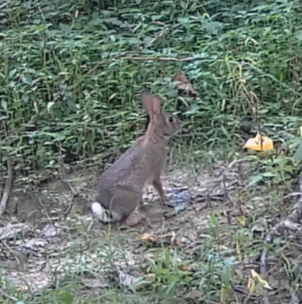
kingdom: Animalia
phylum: Chordata
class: Mammalia
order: Lagomorpha
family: Leporidae
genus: Sylvilagus
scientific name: Sylvilagus floridanus
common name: Eastern cottontail
